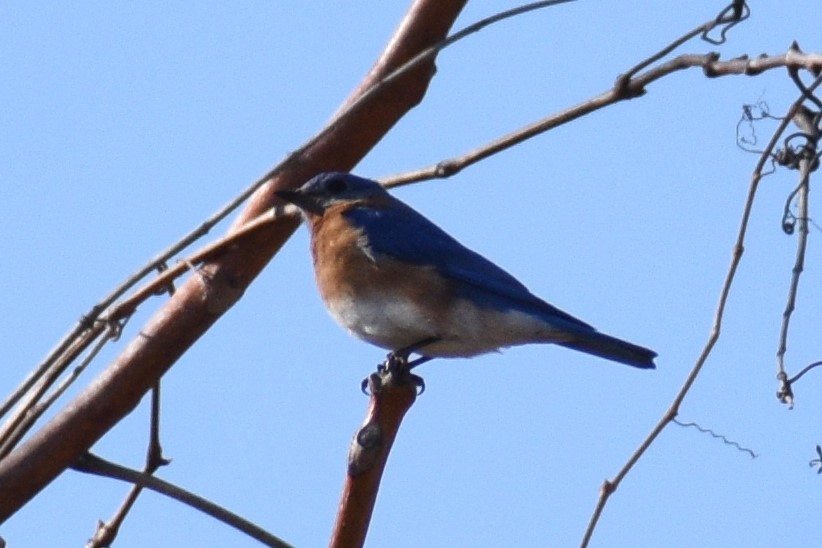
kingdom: Animalia
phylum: Chordata
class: Aves
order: Passeriformes
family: Turdidae
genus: Sialia
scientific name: Sialia sialis
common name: Eastern bluebird
